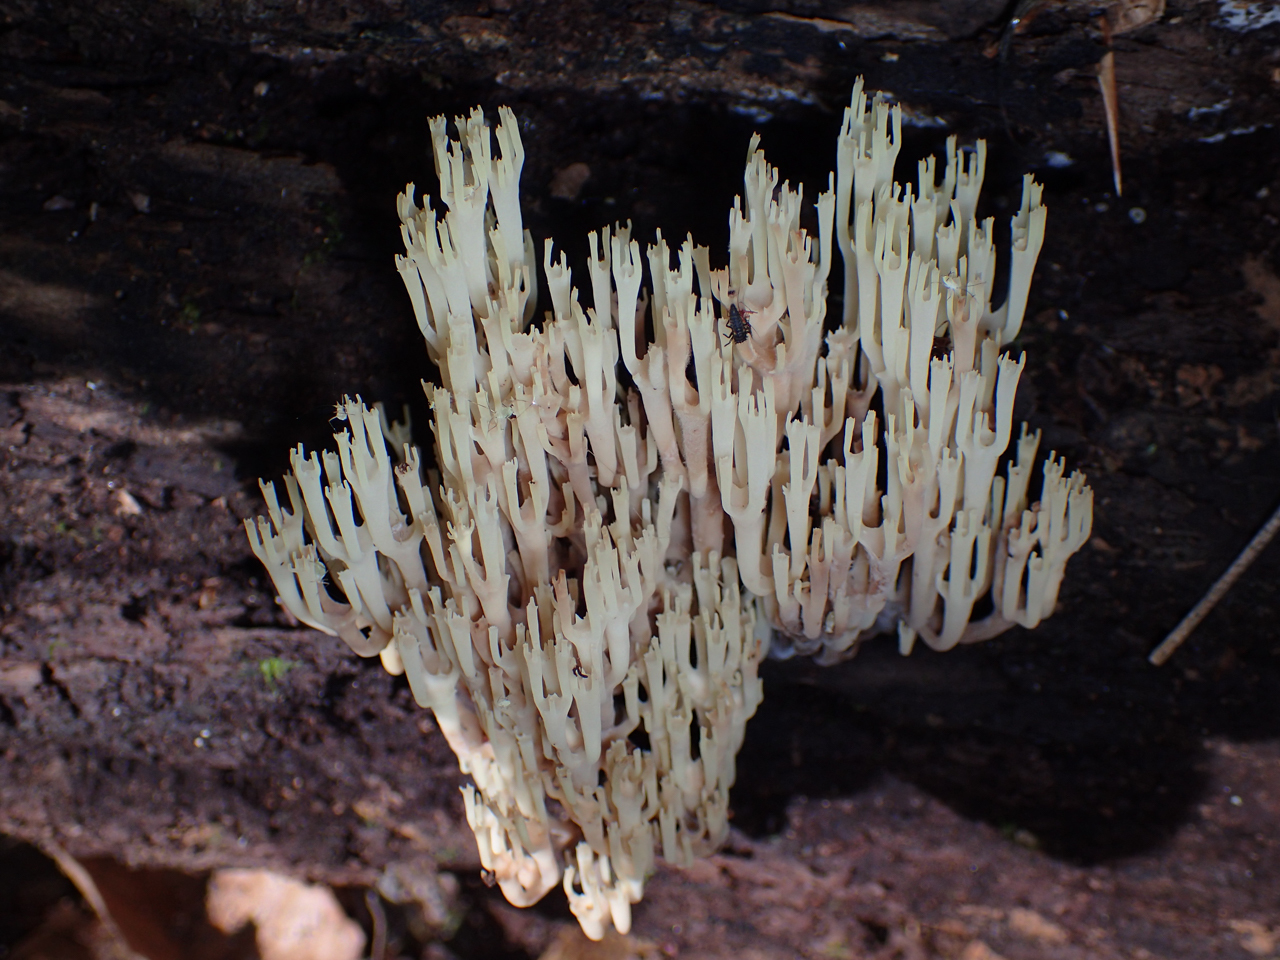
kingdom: Fungi
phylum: Basidiomycota
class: Agaricomycetes
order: Russulales
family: Auriscalpiaceae
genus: Artomyces
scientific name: Artomyces pyxidatus
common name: Crown-tipped coral fungus
